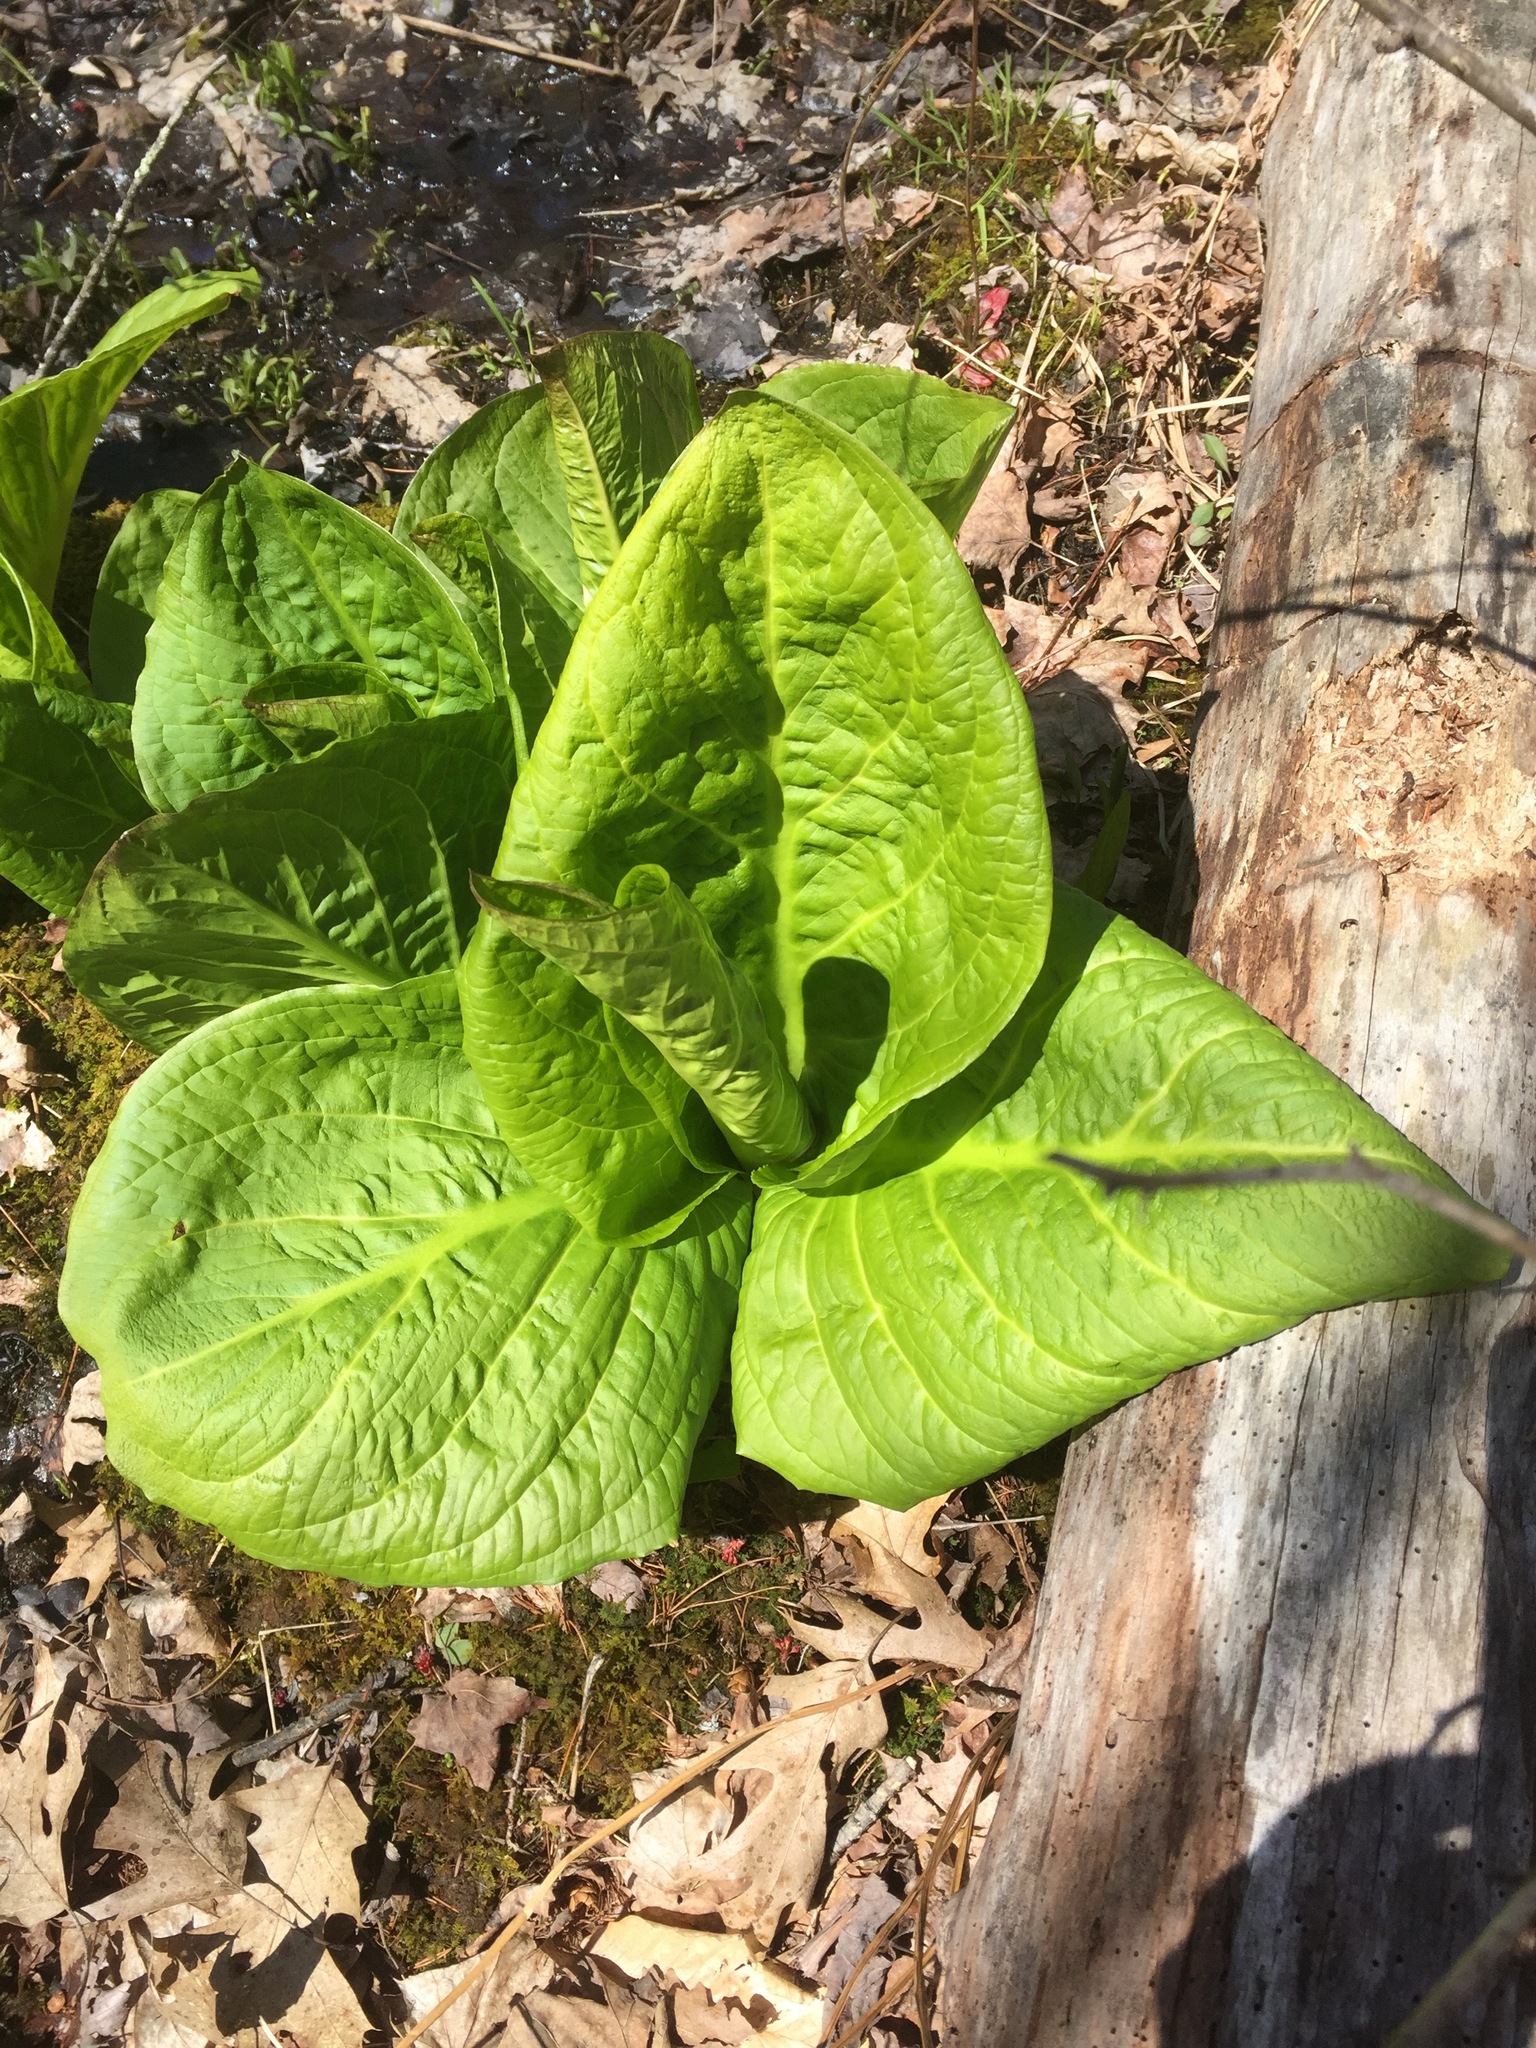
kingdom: Plantae
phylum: Tracheophyta
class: Liliopsida
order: Alismatales
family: Araceae
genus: Symplocarpus
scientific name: Symplocarpus foetidus
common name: Eastern skunk cabbage
